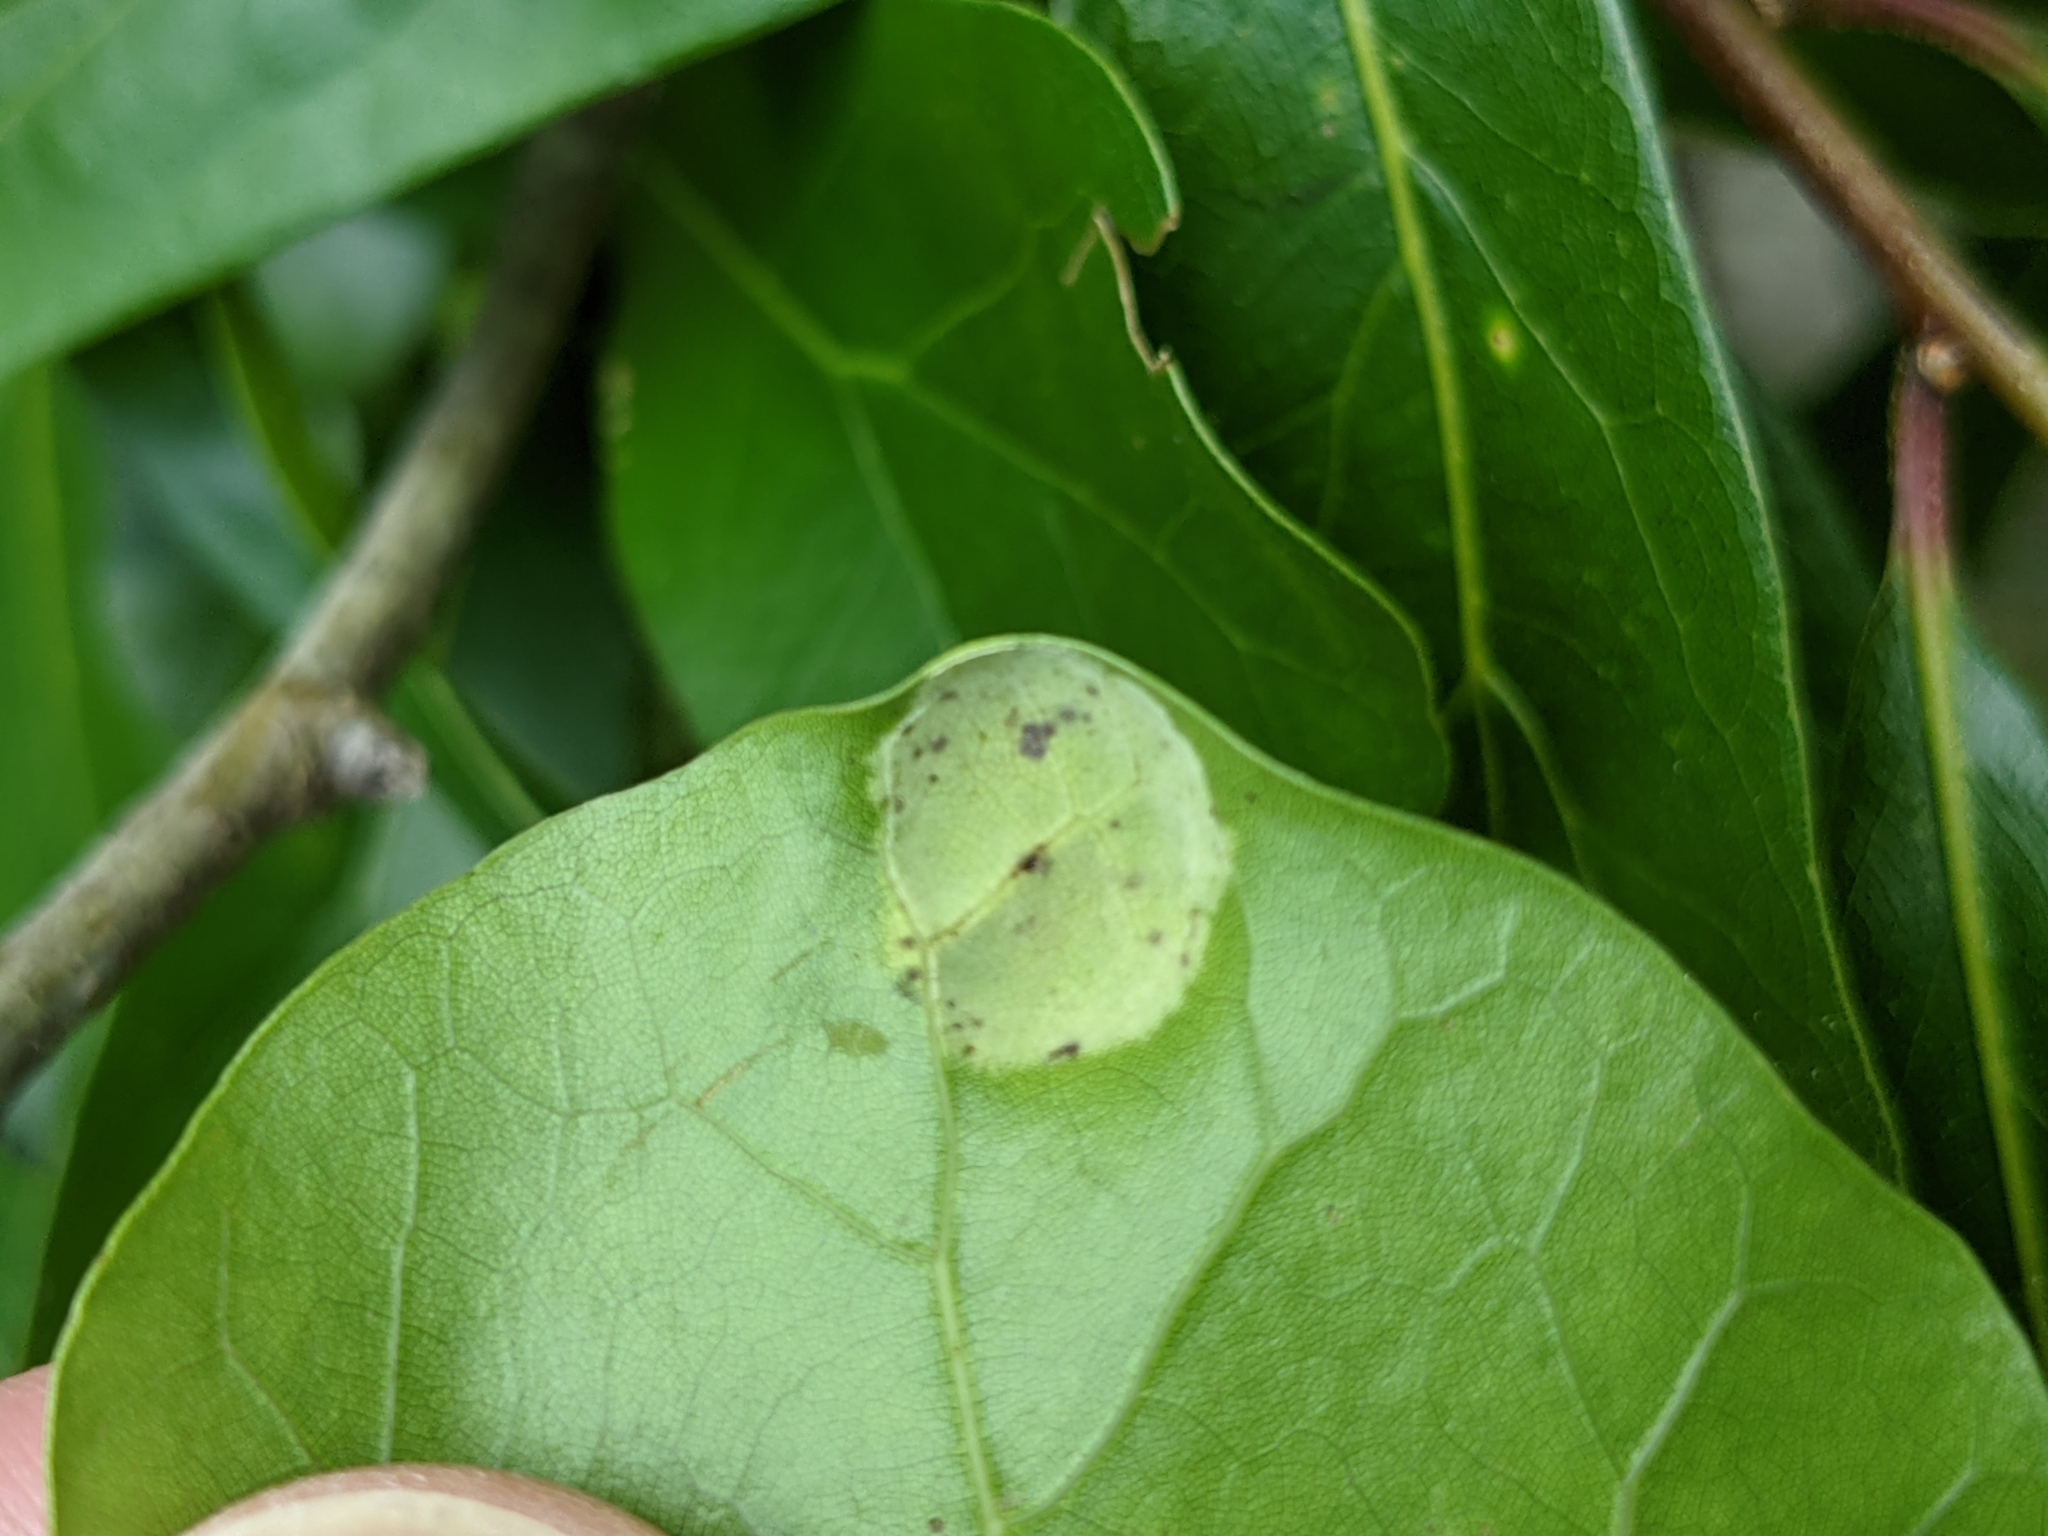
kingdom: Fungi
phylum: Ascomycota
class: Taphrinomycetes
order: Taphrinales
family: Taphrinaceae
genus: Taphrina
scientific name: Taphrina caerulescens
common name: Oak leaf blister
